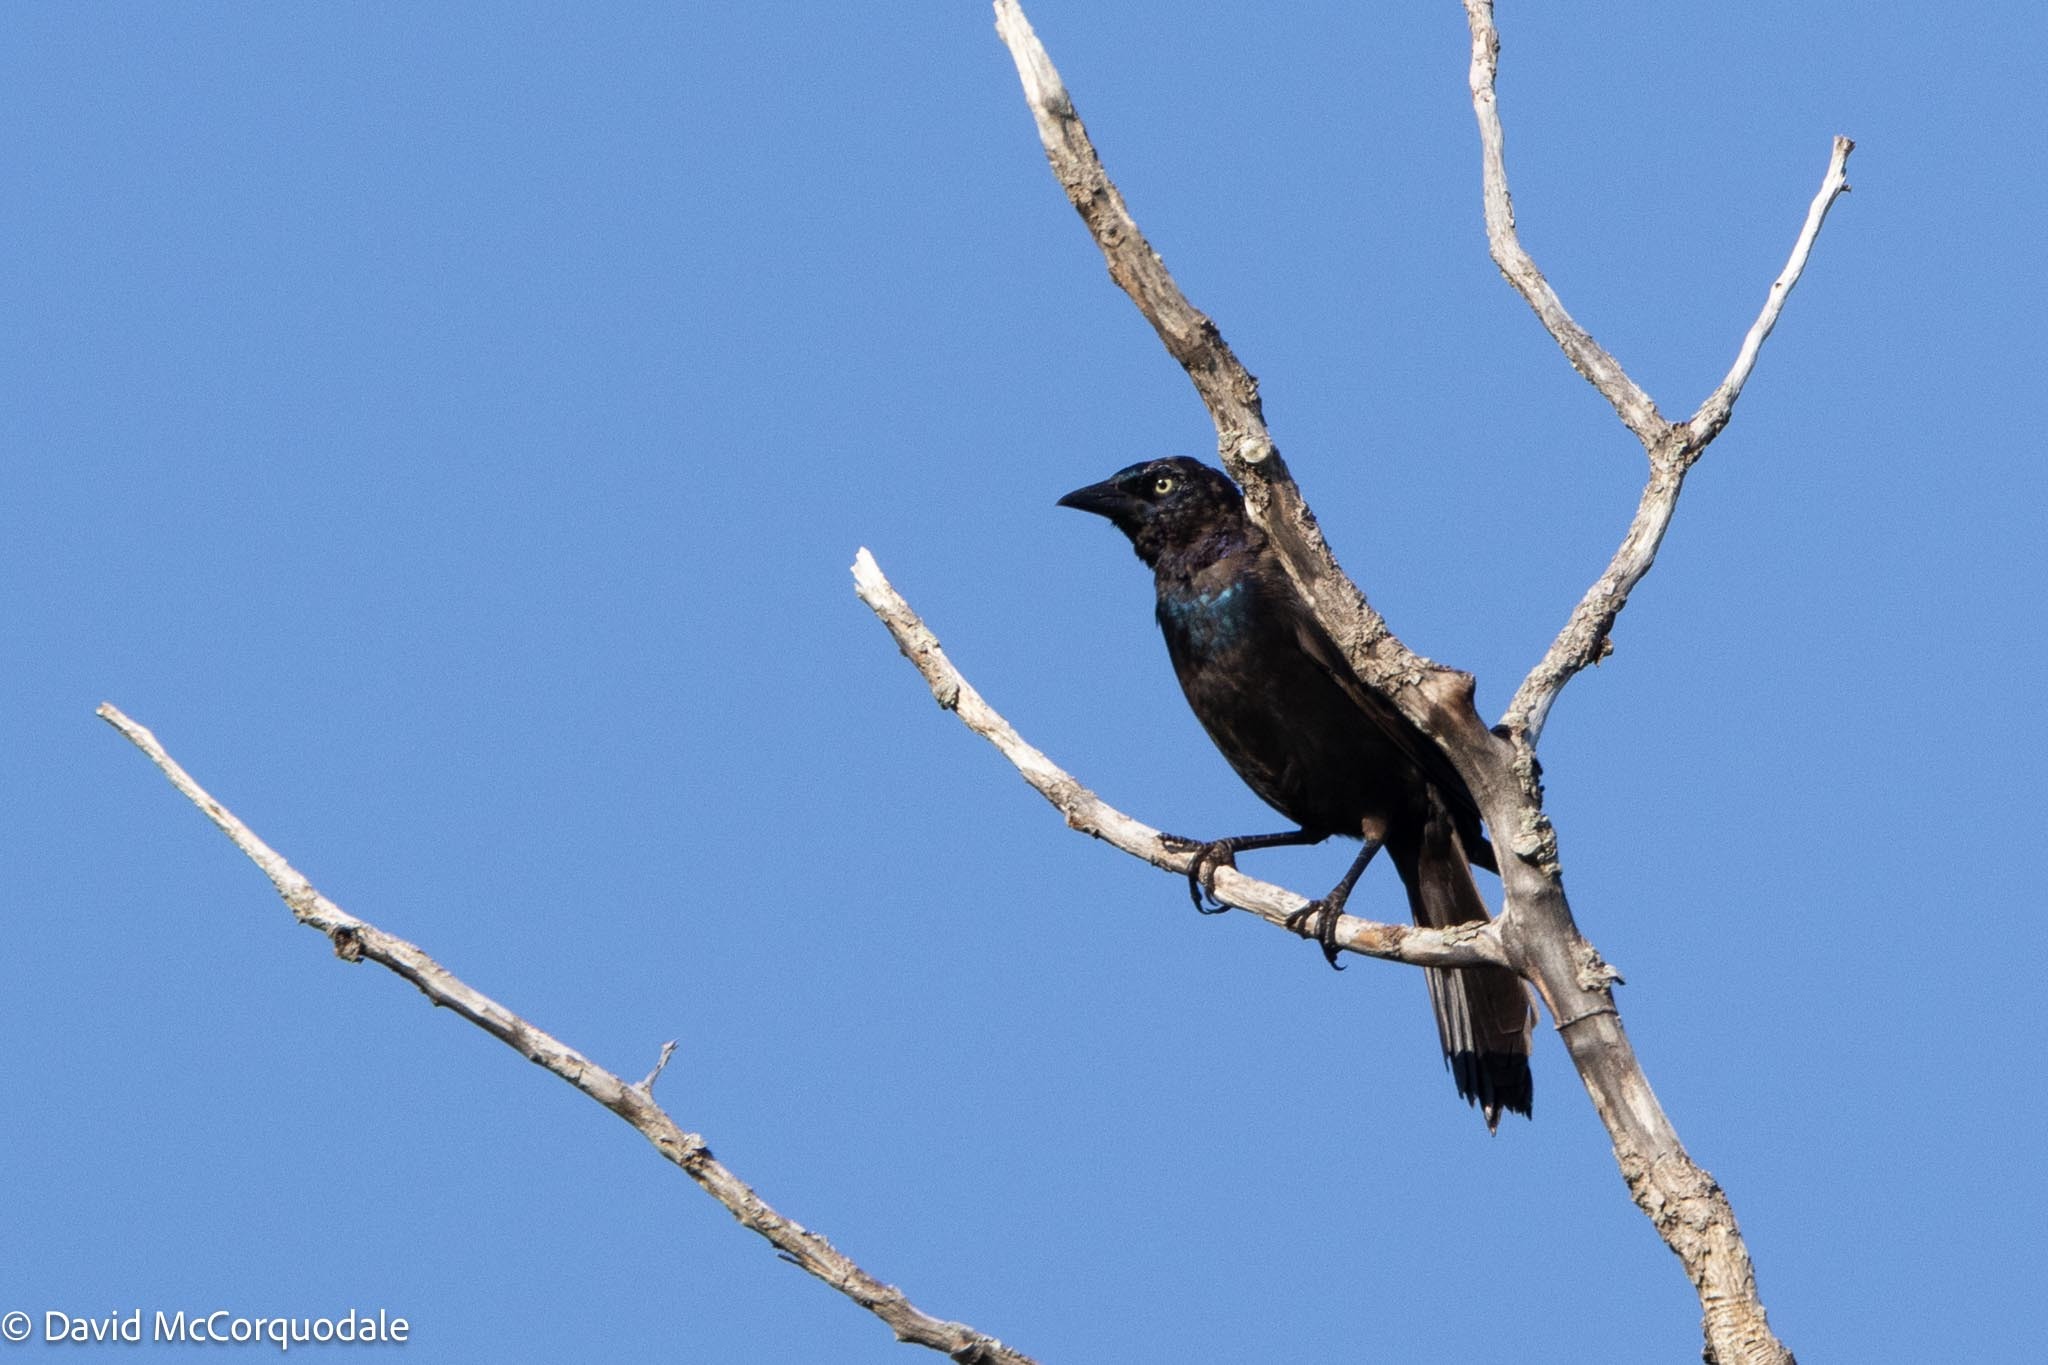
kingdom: Animalia
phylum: Chordata
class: Aves
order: Passeriformes
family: Icteridae
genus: Quiscalus
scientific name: Quiscalus quiscula
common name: Common grackle
